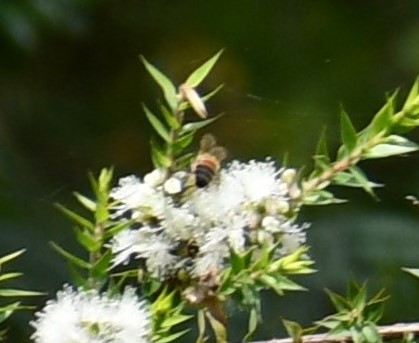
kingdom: Animalia
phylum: Arthropoda
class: Insecta
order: Hymenoptera
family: Apidae
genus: Apis
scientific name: Apis mellifera
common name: Honey bee
